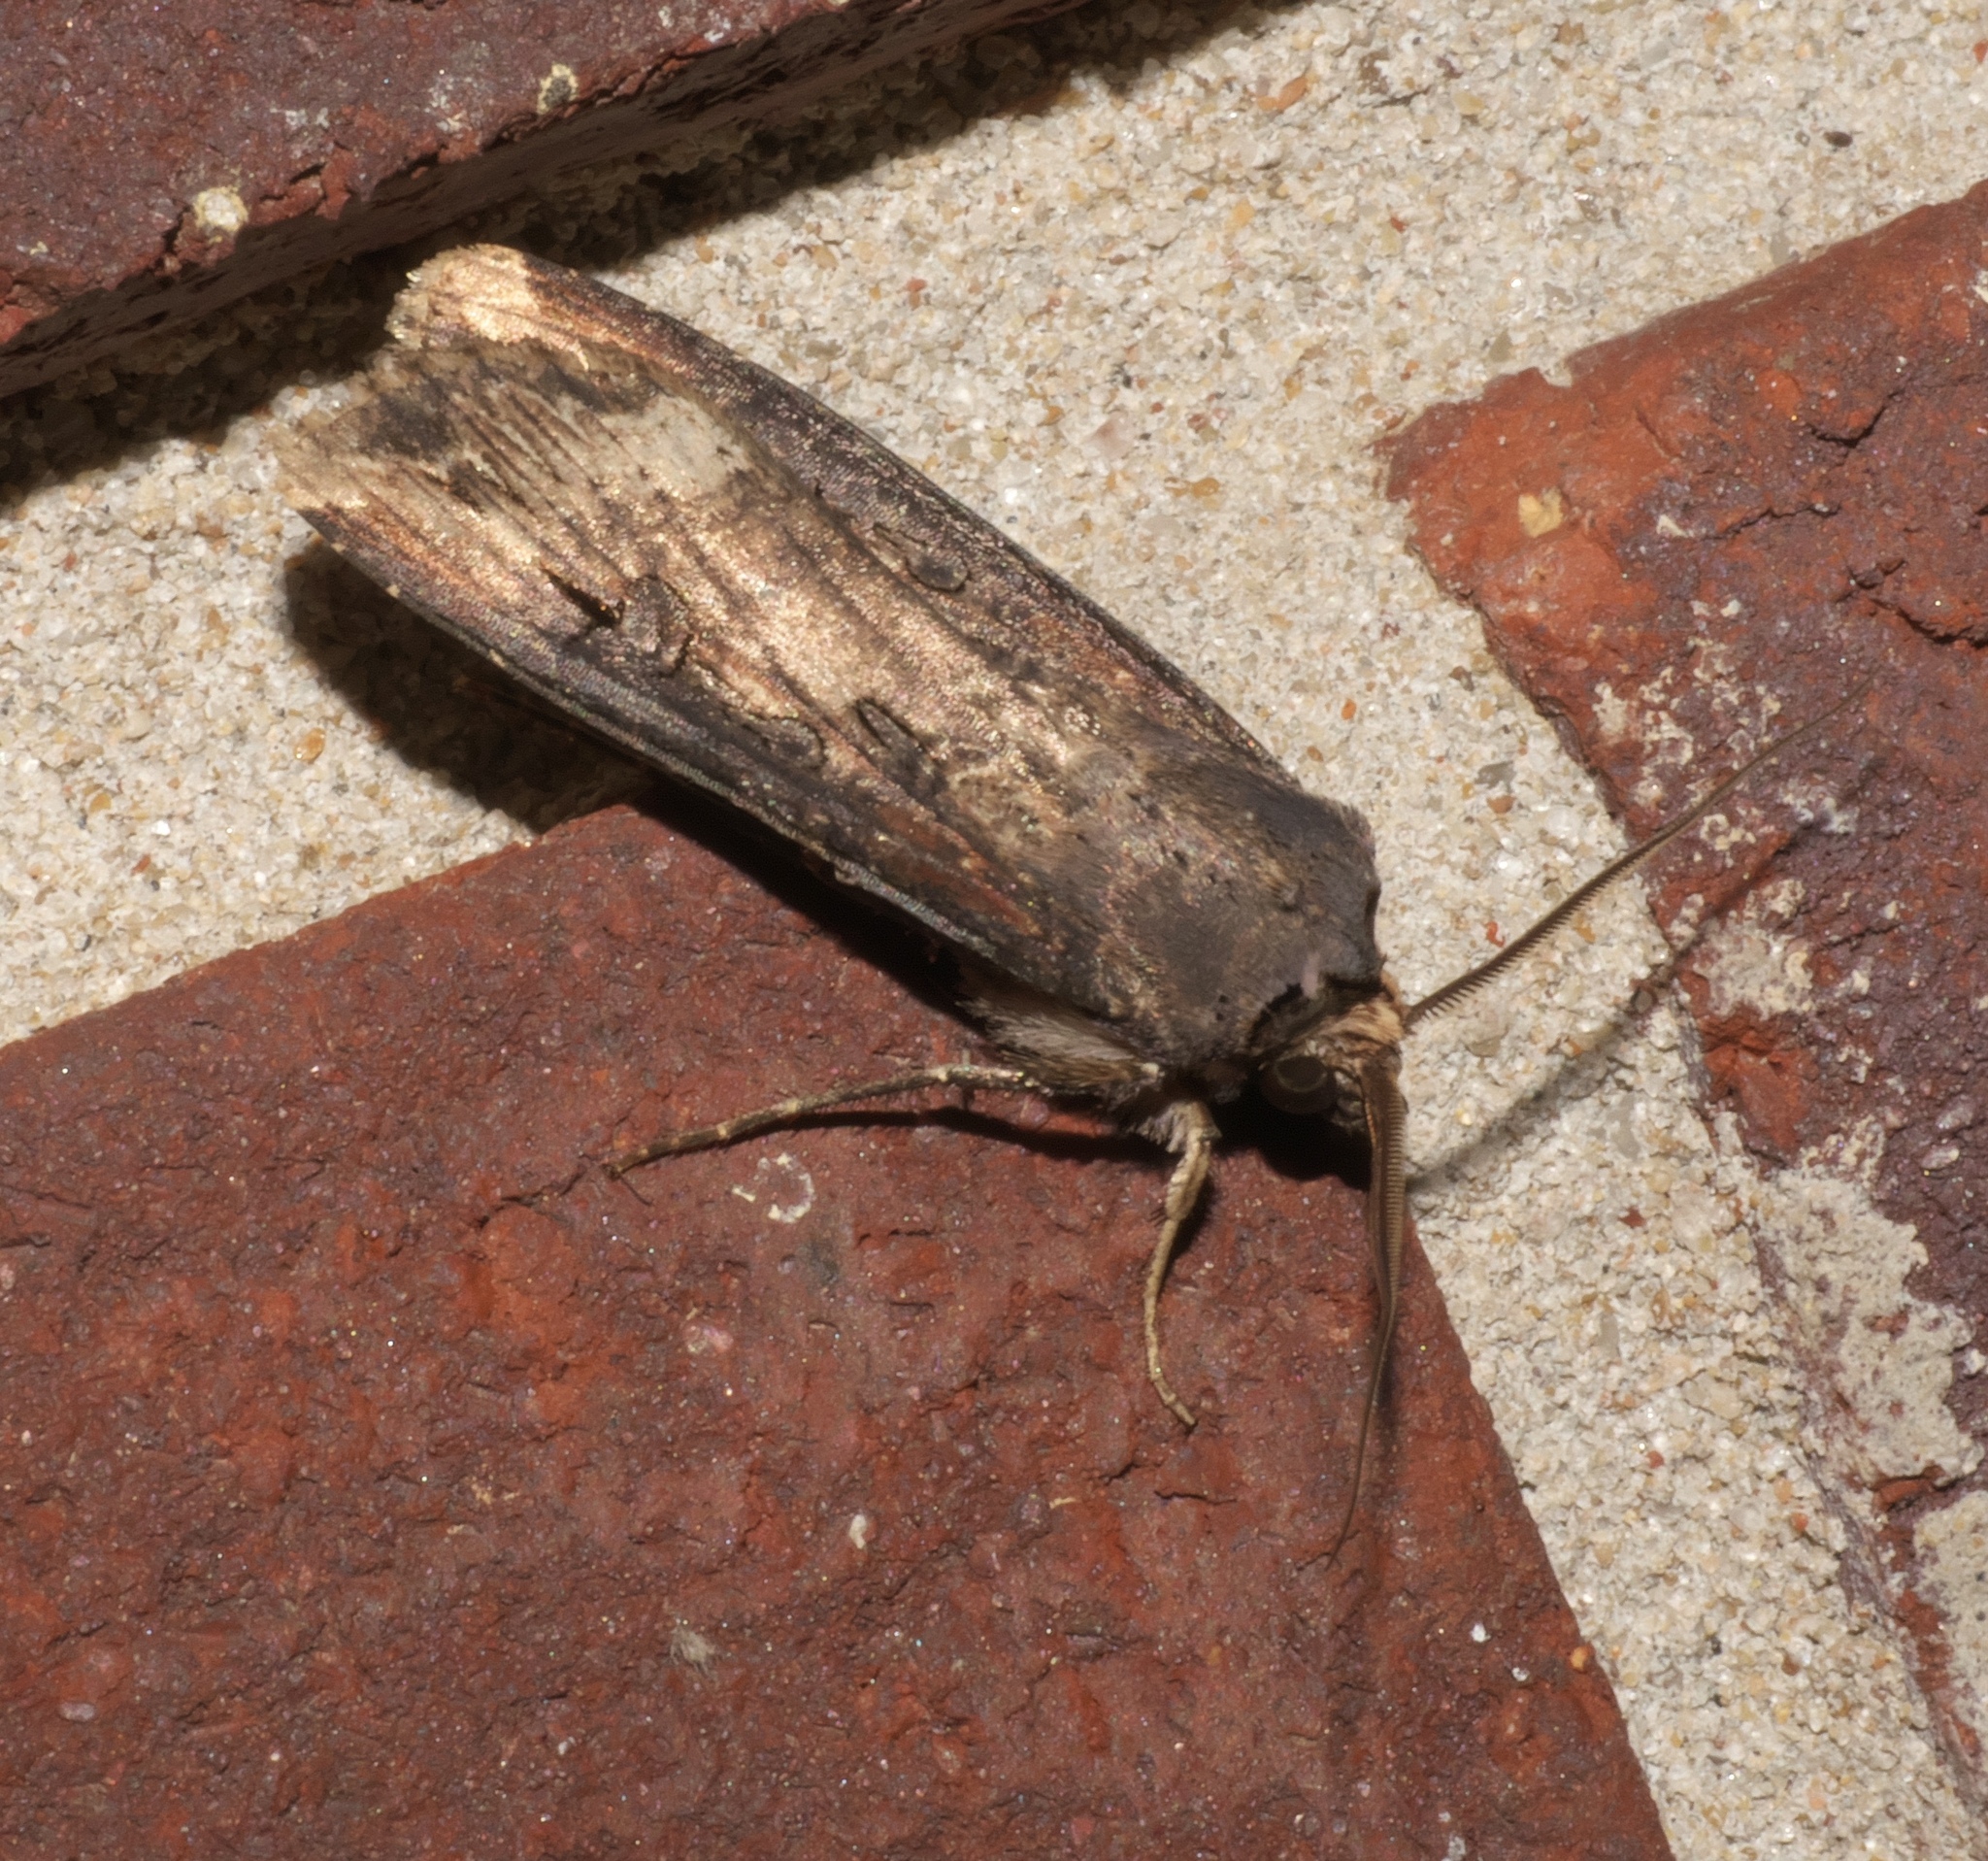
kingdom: Animalia
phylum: Arthropoda
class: Insecta
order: Lepidoptera
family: Noctuidae
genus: Agrotis
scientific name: Agrotis ipsilon
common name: Dark sword-grass
